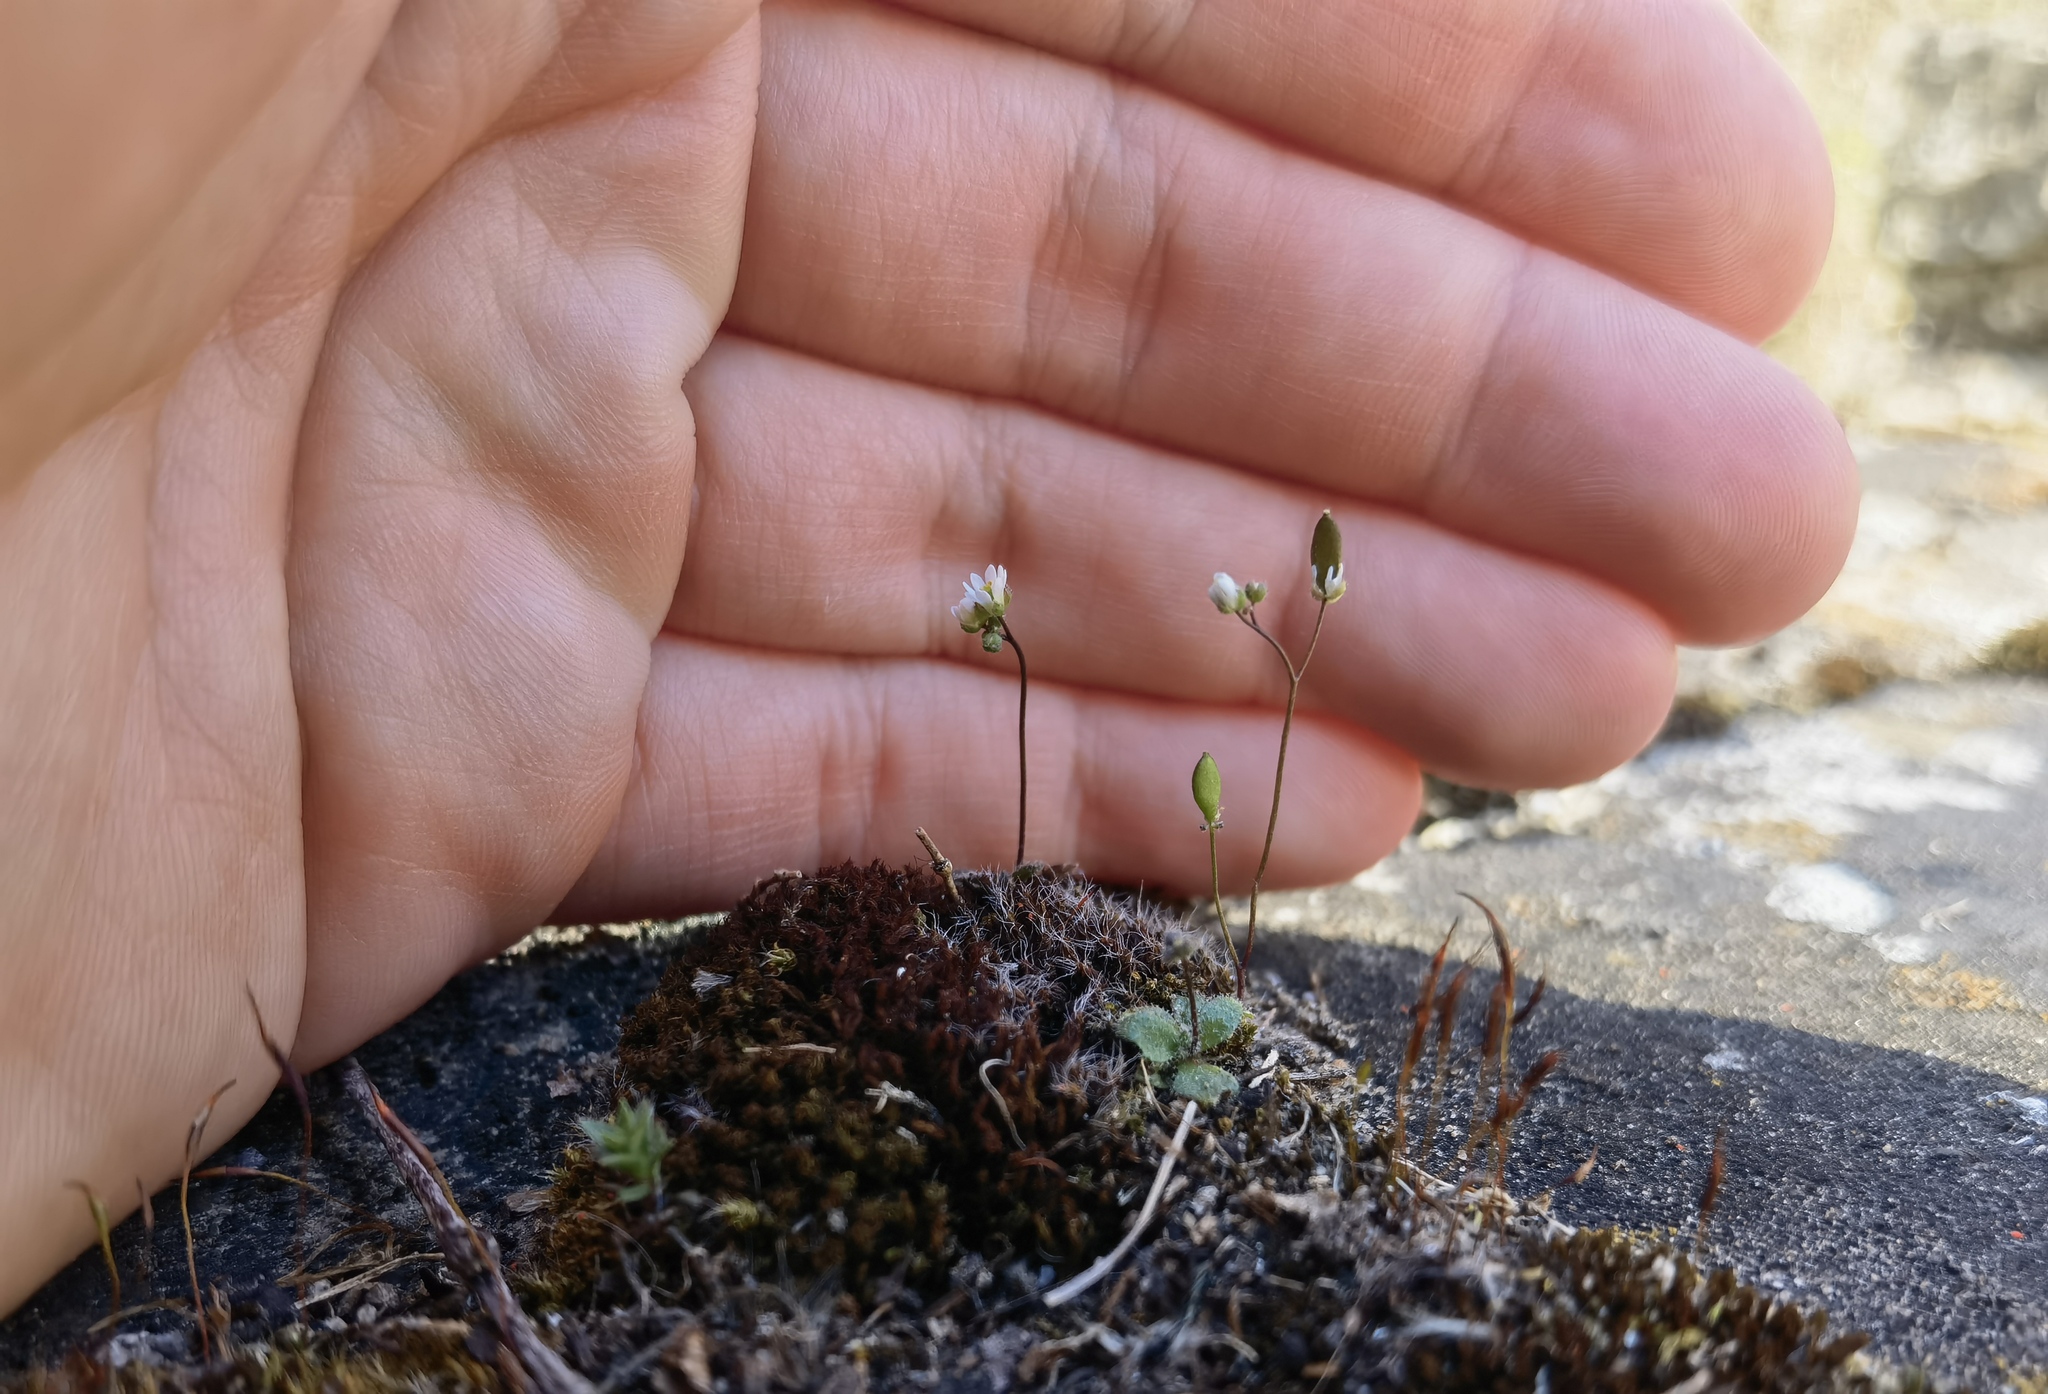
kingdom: Plantae
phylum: Tracheophyta
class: Magnoliopsida
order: Brassicales
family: Brassicaceae
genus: Draba
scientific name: Draba verna
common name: Spring draba
